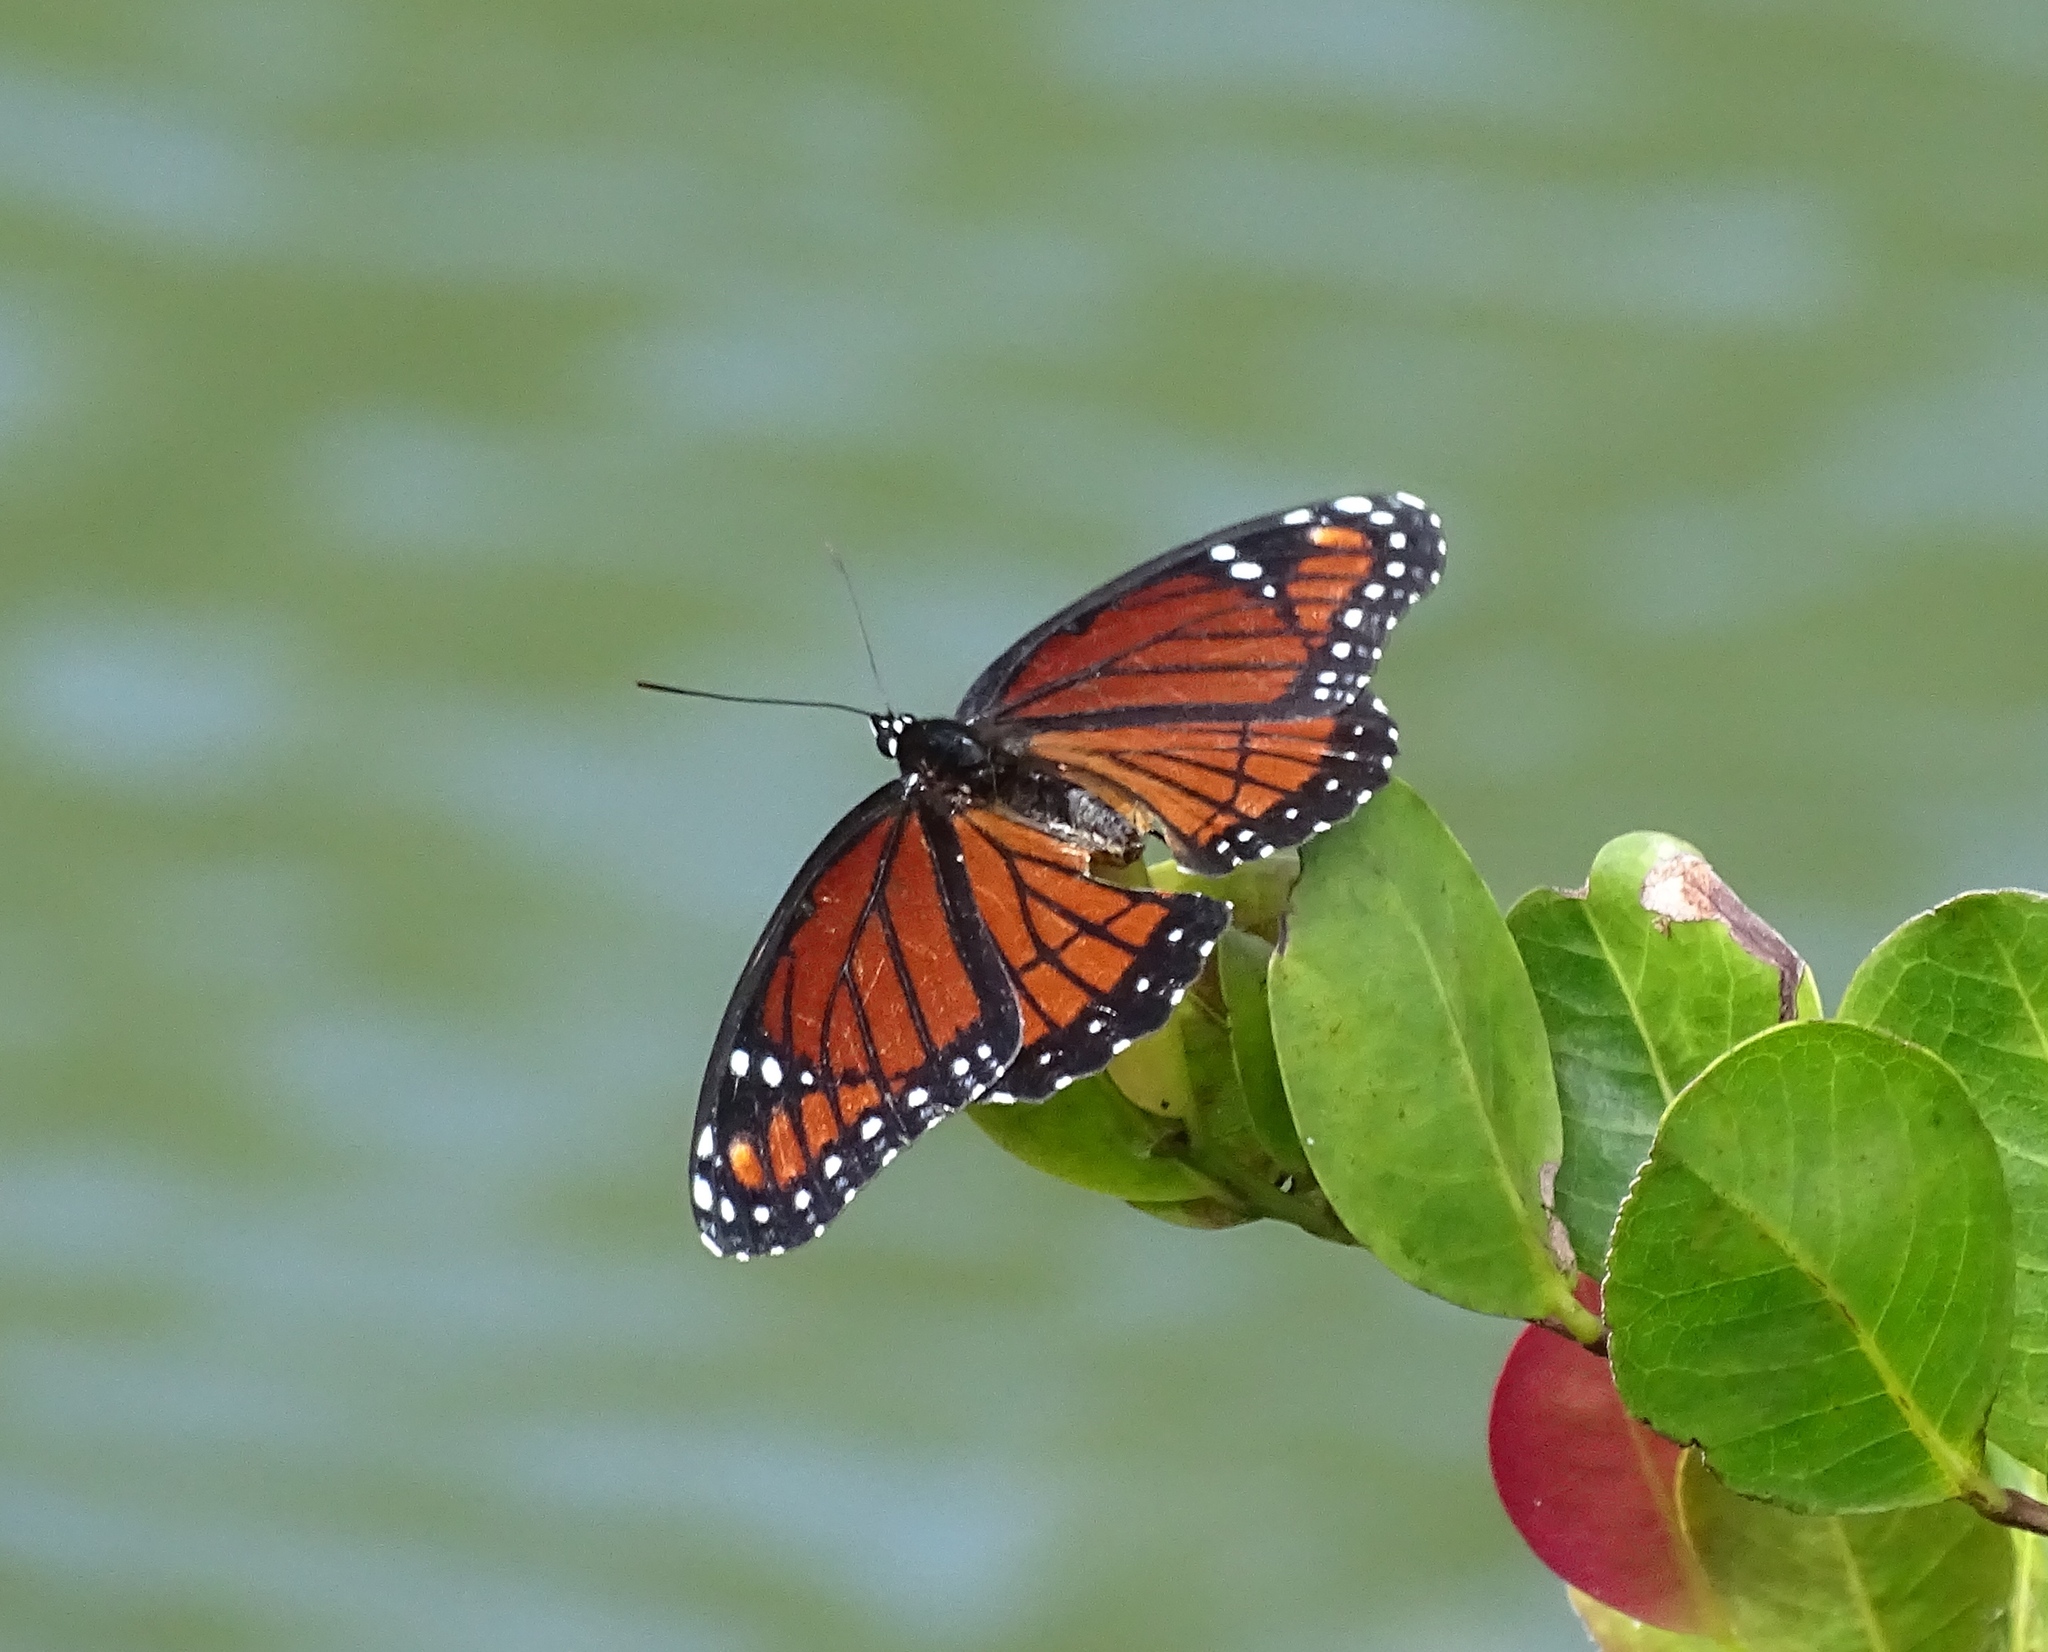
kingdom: Animalia
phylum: Arthropoda
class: Insecta
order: Lepidoptera
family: Nymphalidae
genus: Limenitis
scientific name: Limenitis archippus
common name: Viceroy
